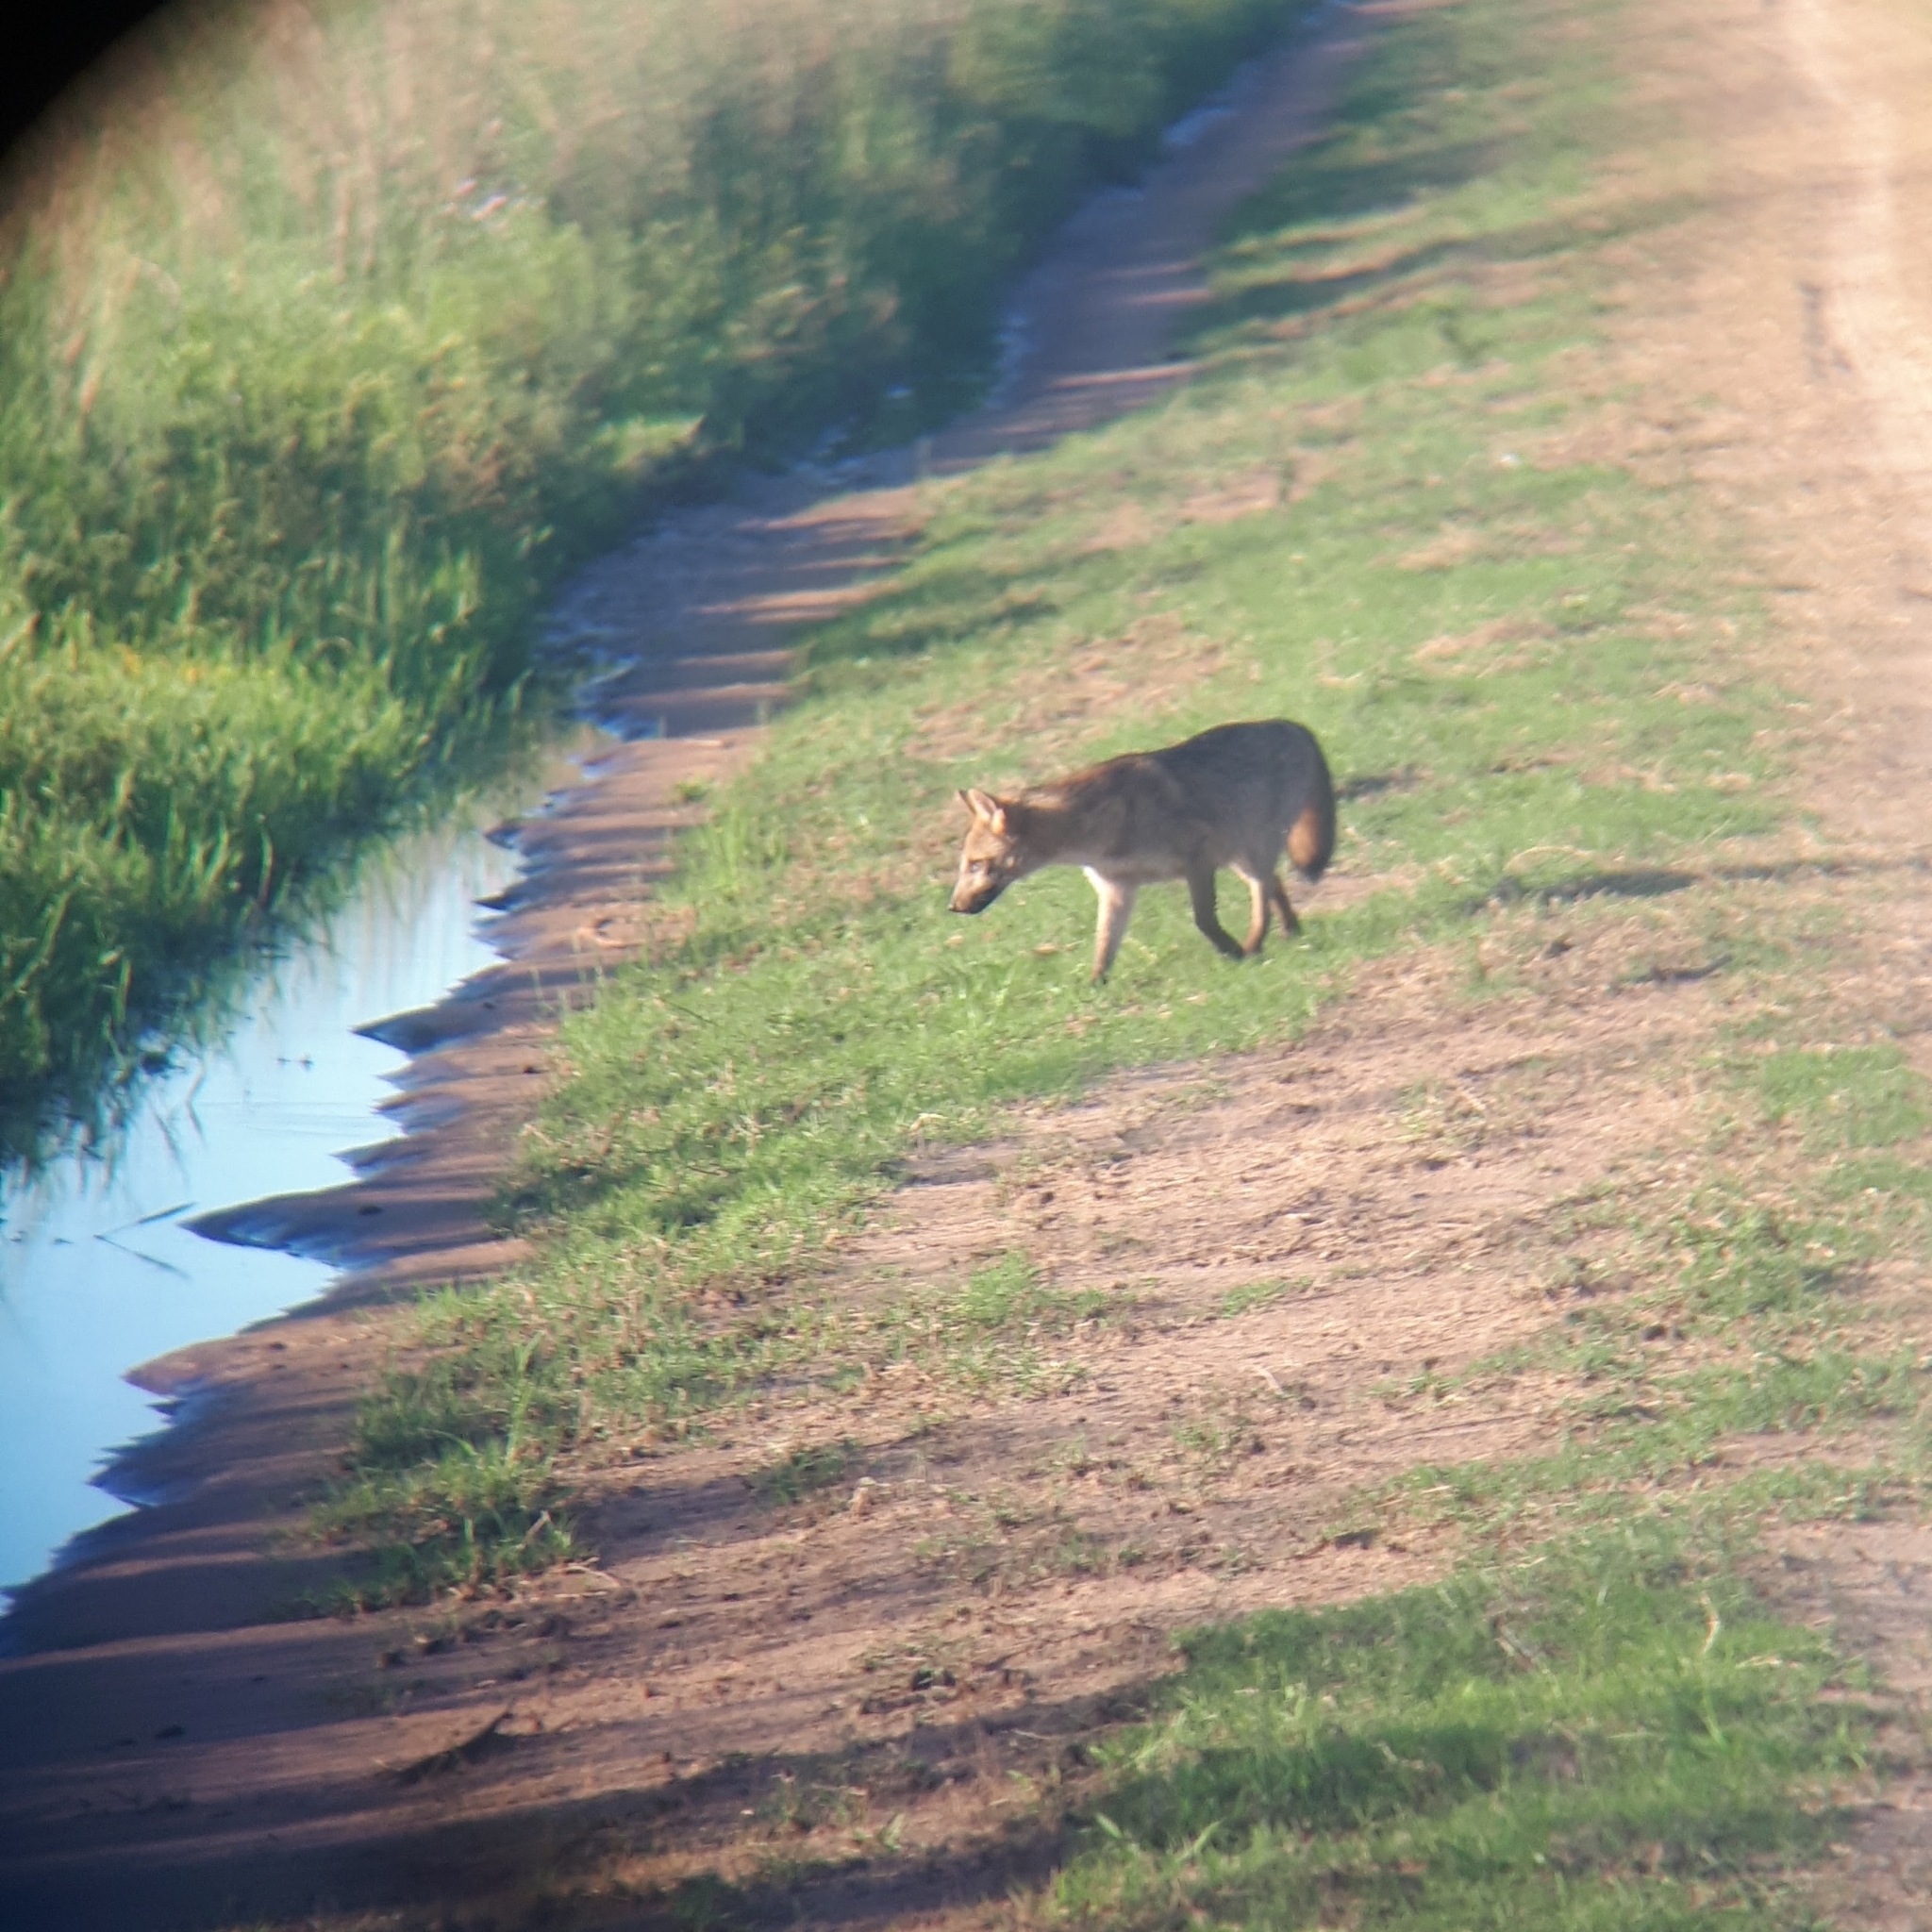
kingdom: Animalia
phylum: Chordata
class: Mammalia
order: Carnivora
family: Canidae
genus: Cerdocyon
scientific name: Cerdocyon thous
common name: Crab-eating fox
